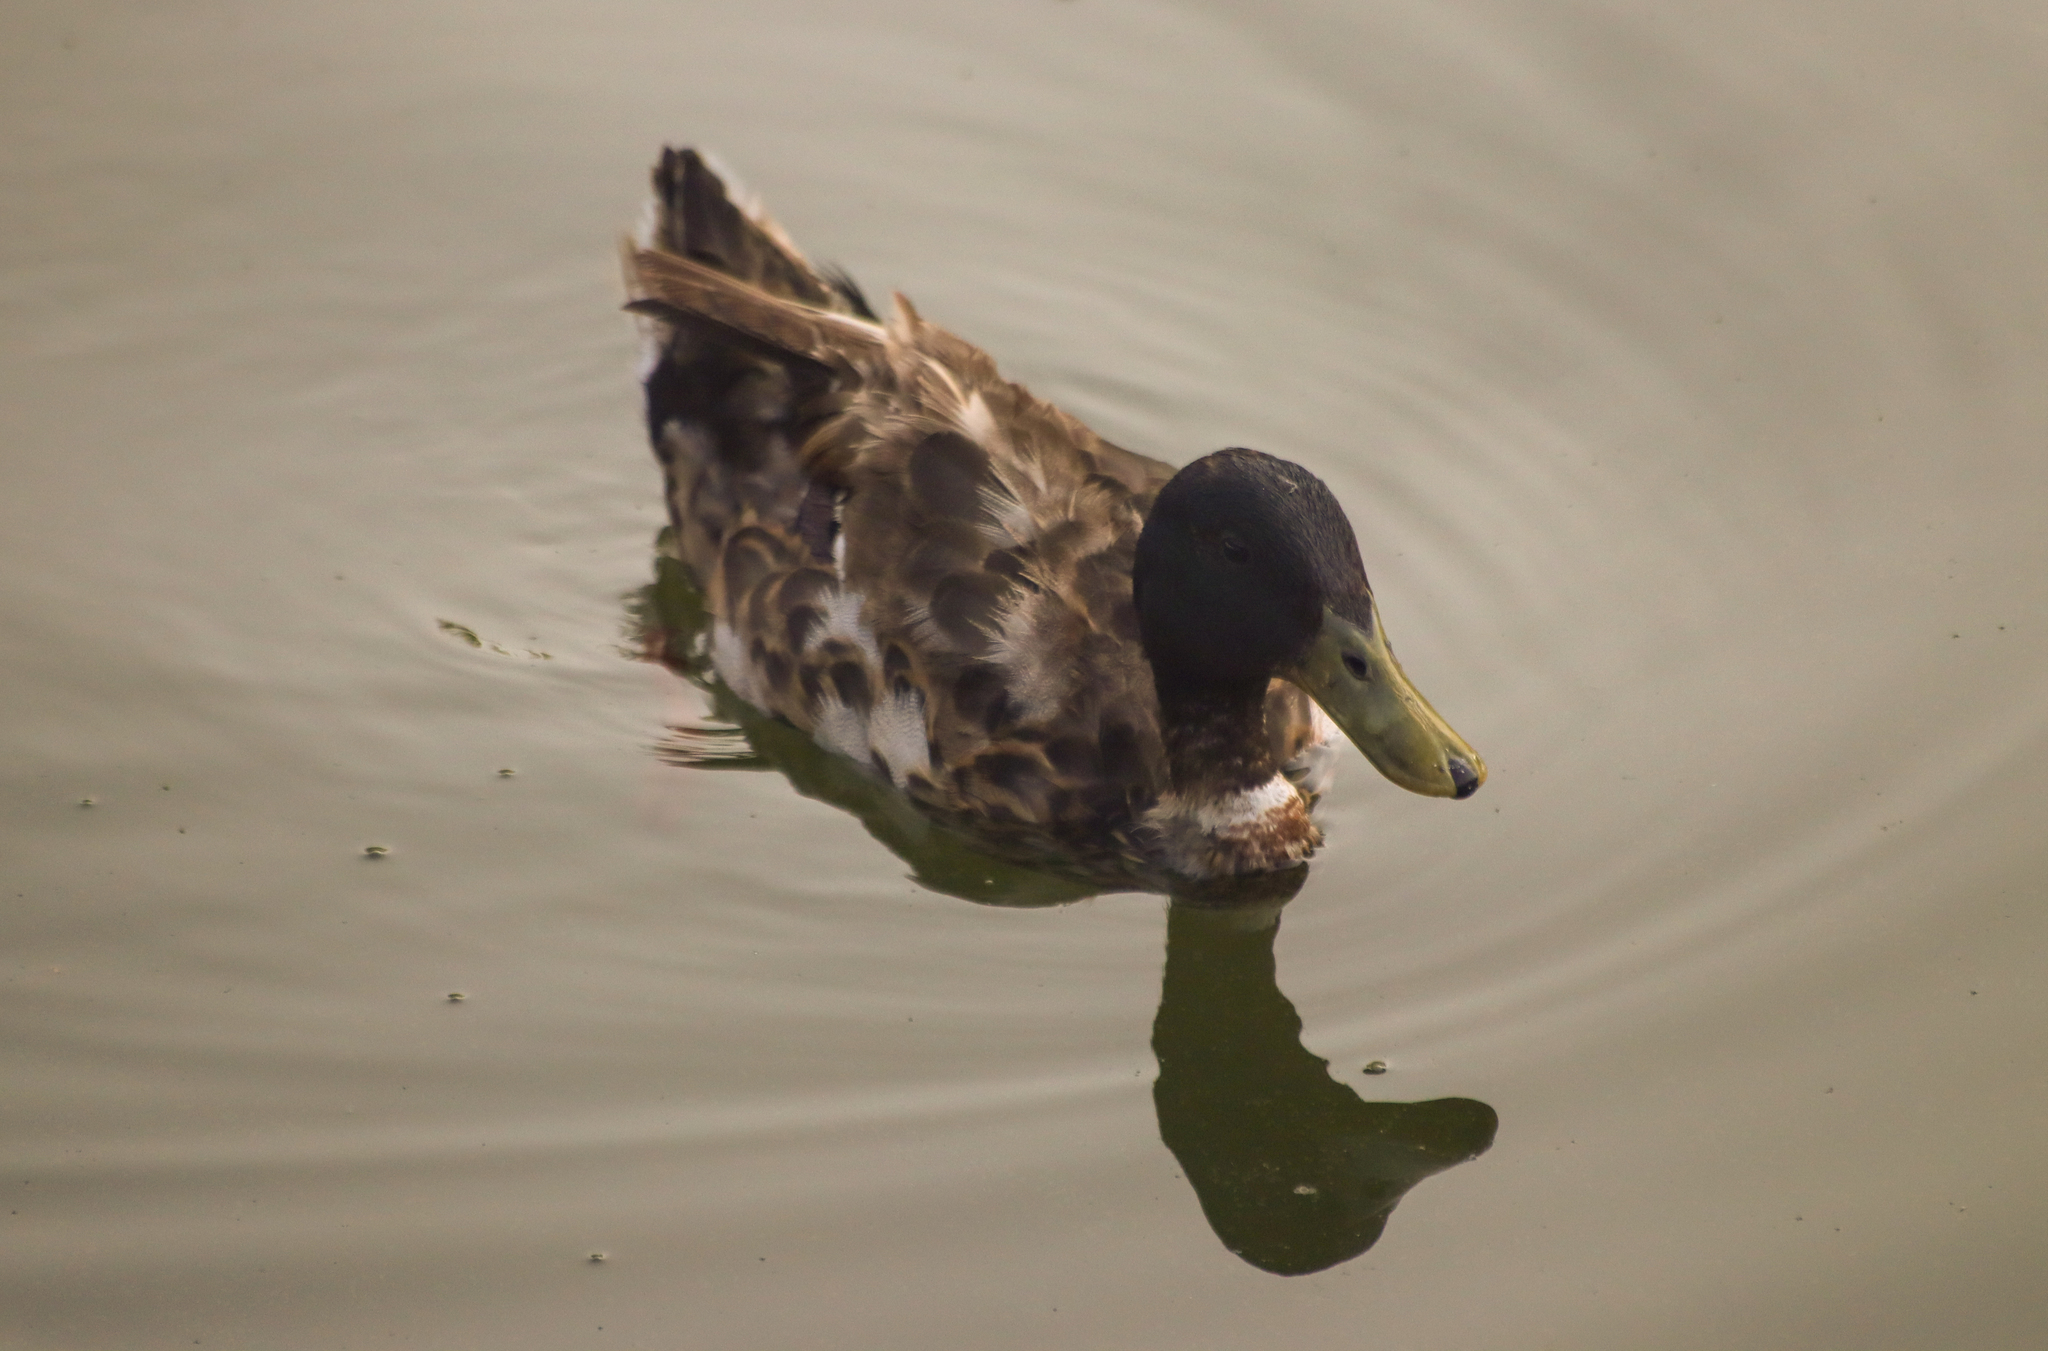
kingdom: Animalia
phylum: Chordata
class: Aves
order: Anseriformes
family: Anatidae
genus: Anas
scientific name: Anas platyrhynchos
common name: Mallard
